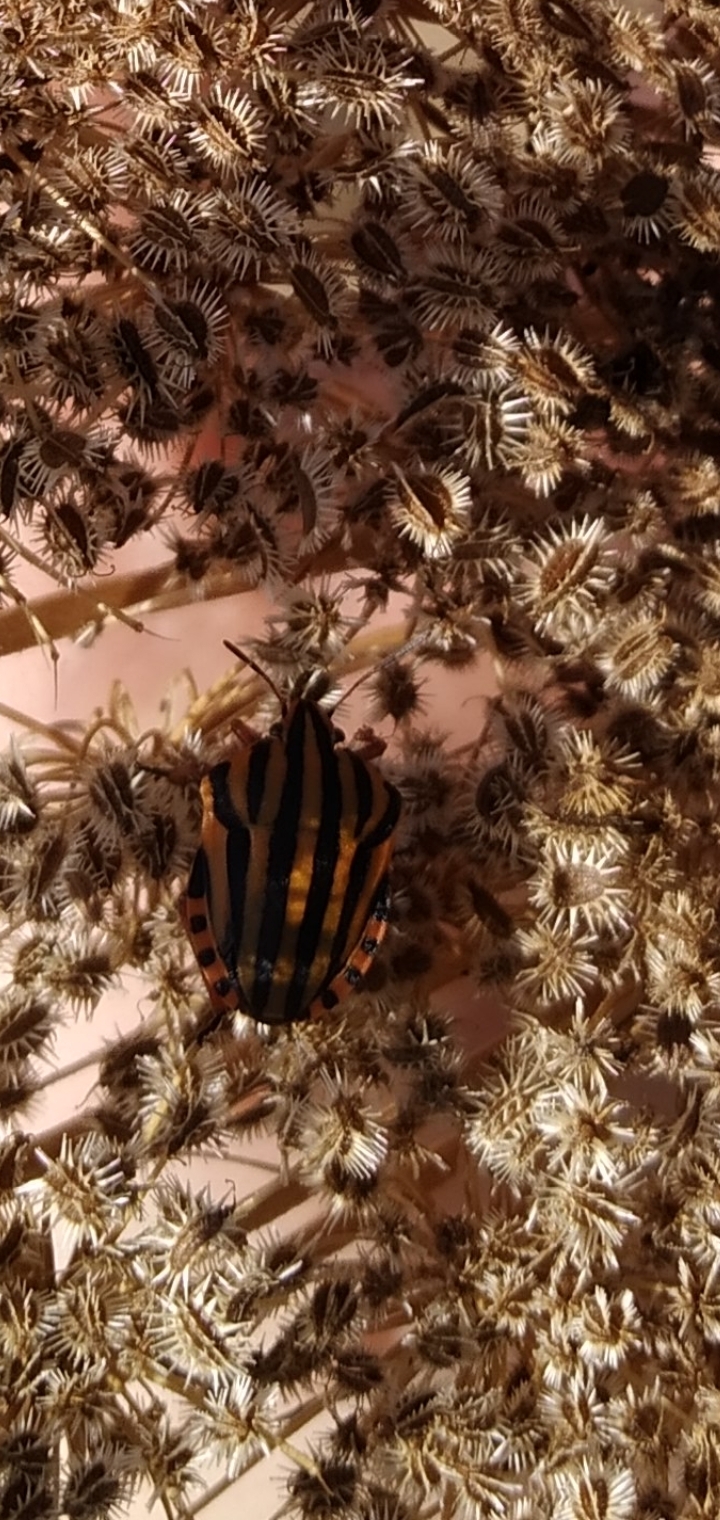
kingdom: Animalia
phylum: Arthropoda
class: Insecta
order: Hemiptera
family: Pentatomidae
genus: Graphosoma
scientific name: Graphosoma italicum
